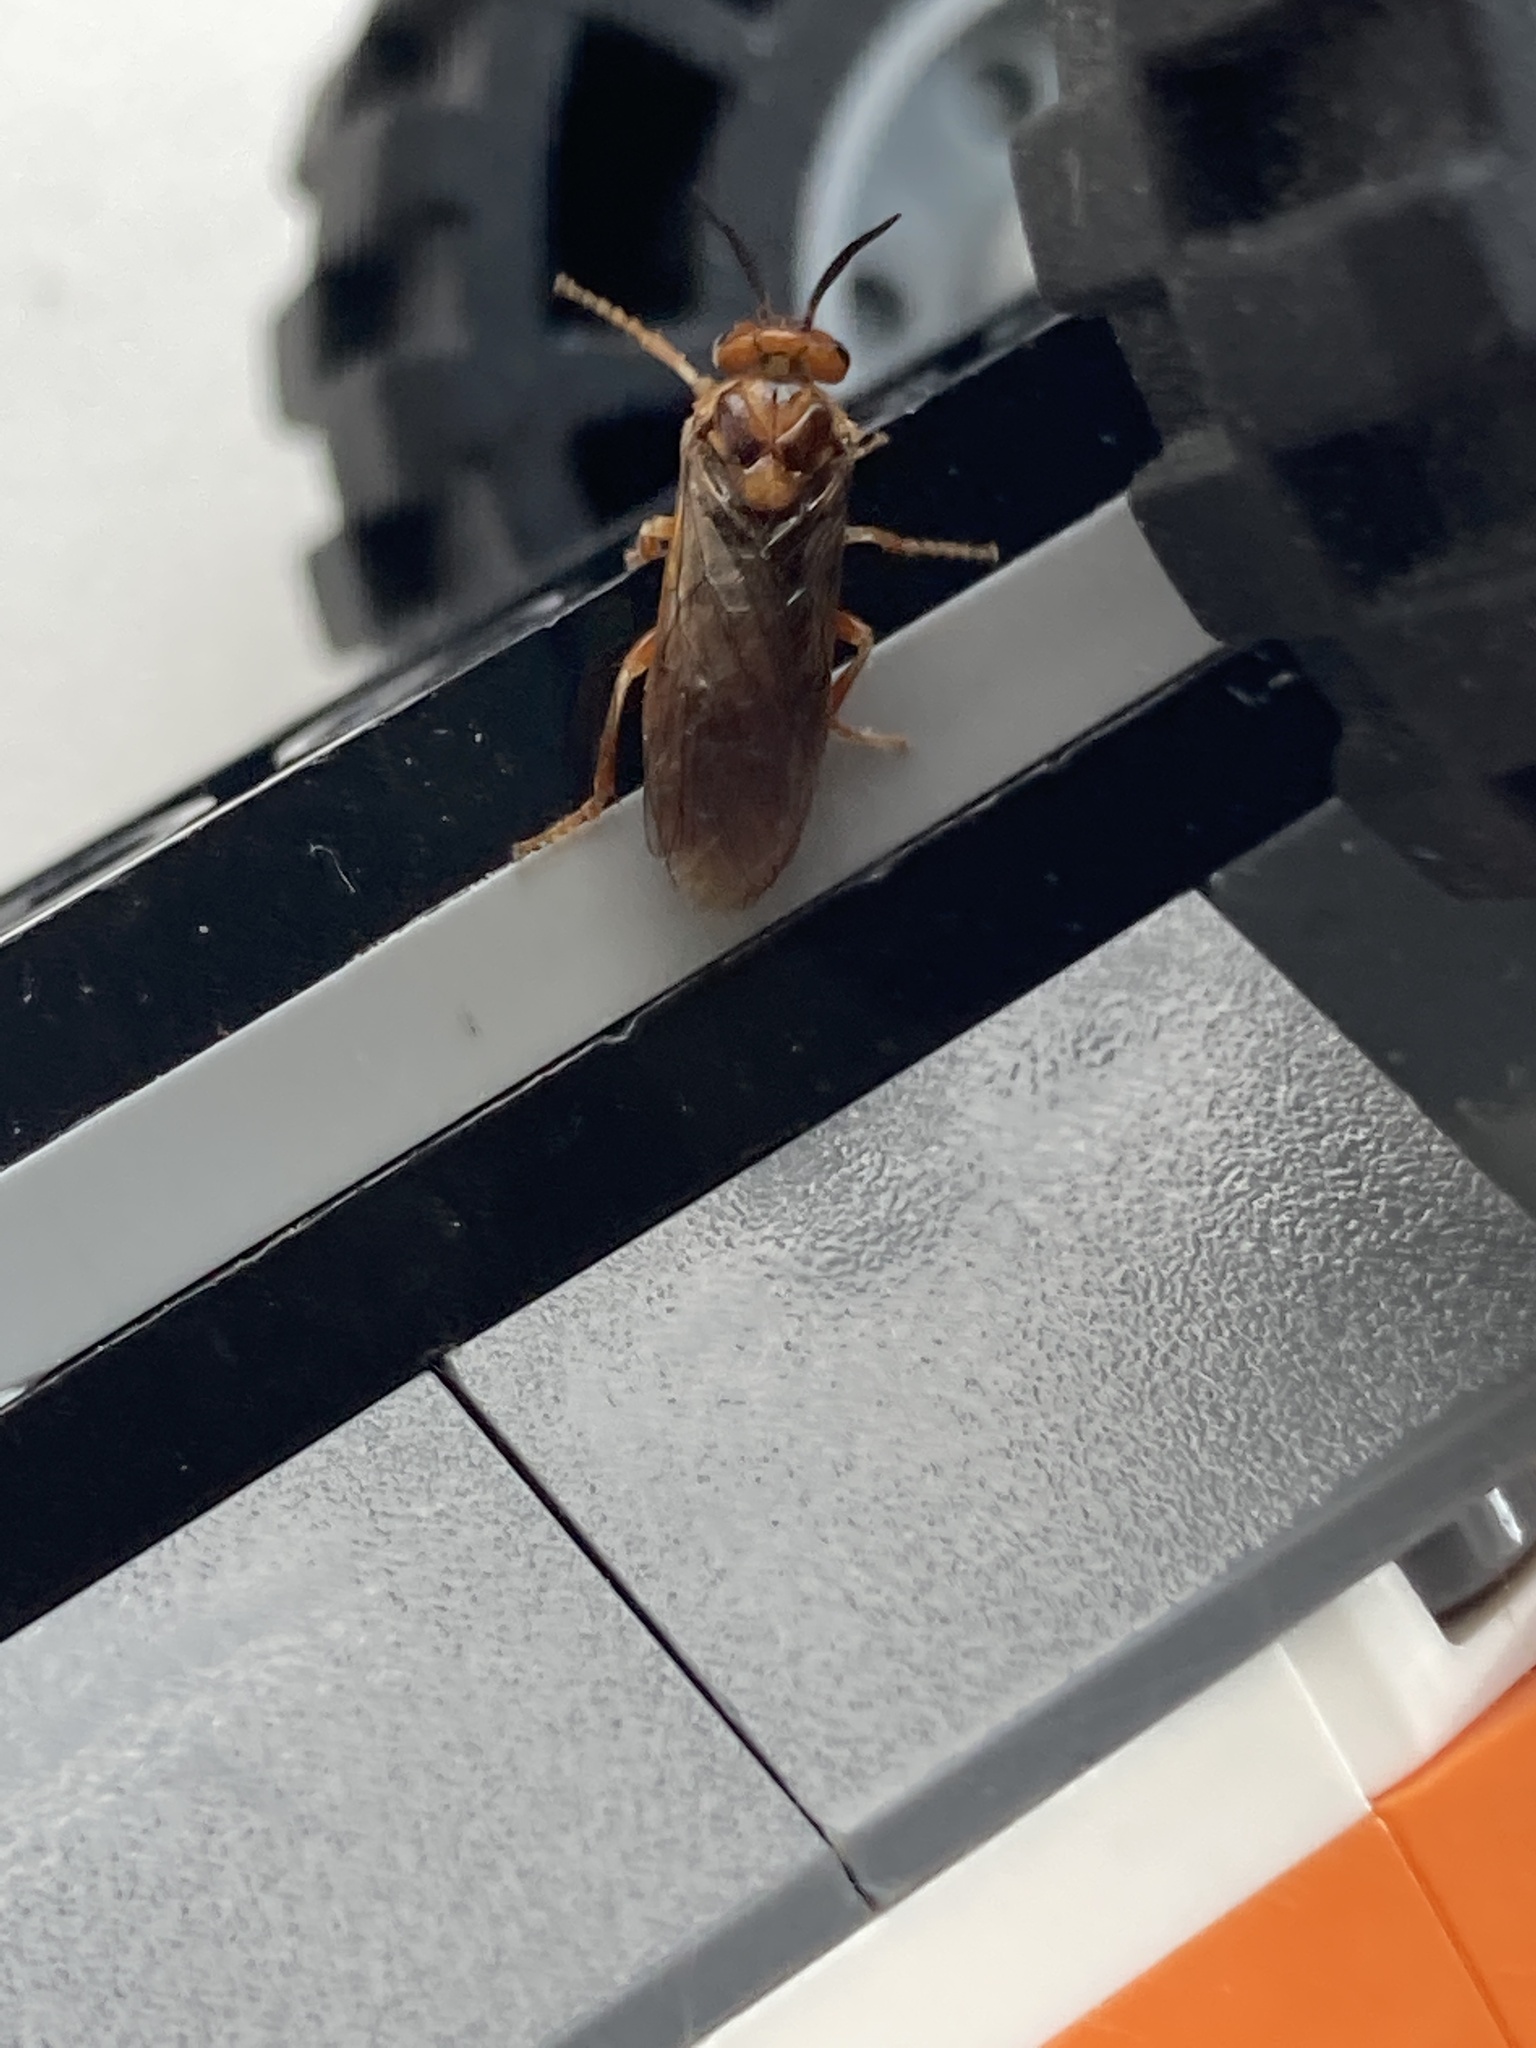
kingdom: Animalia
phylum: Arthropoda
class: Insecta
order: Hymenoptera
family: Diprionidae
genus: Neodiprion
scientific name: Neodiprion sertifer
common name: European pine sawfly
